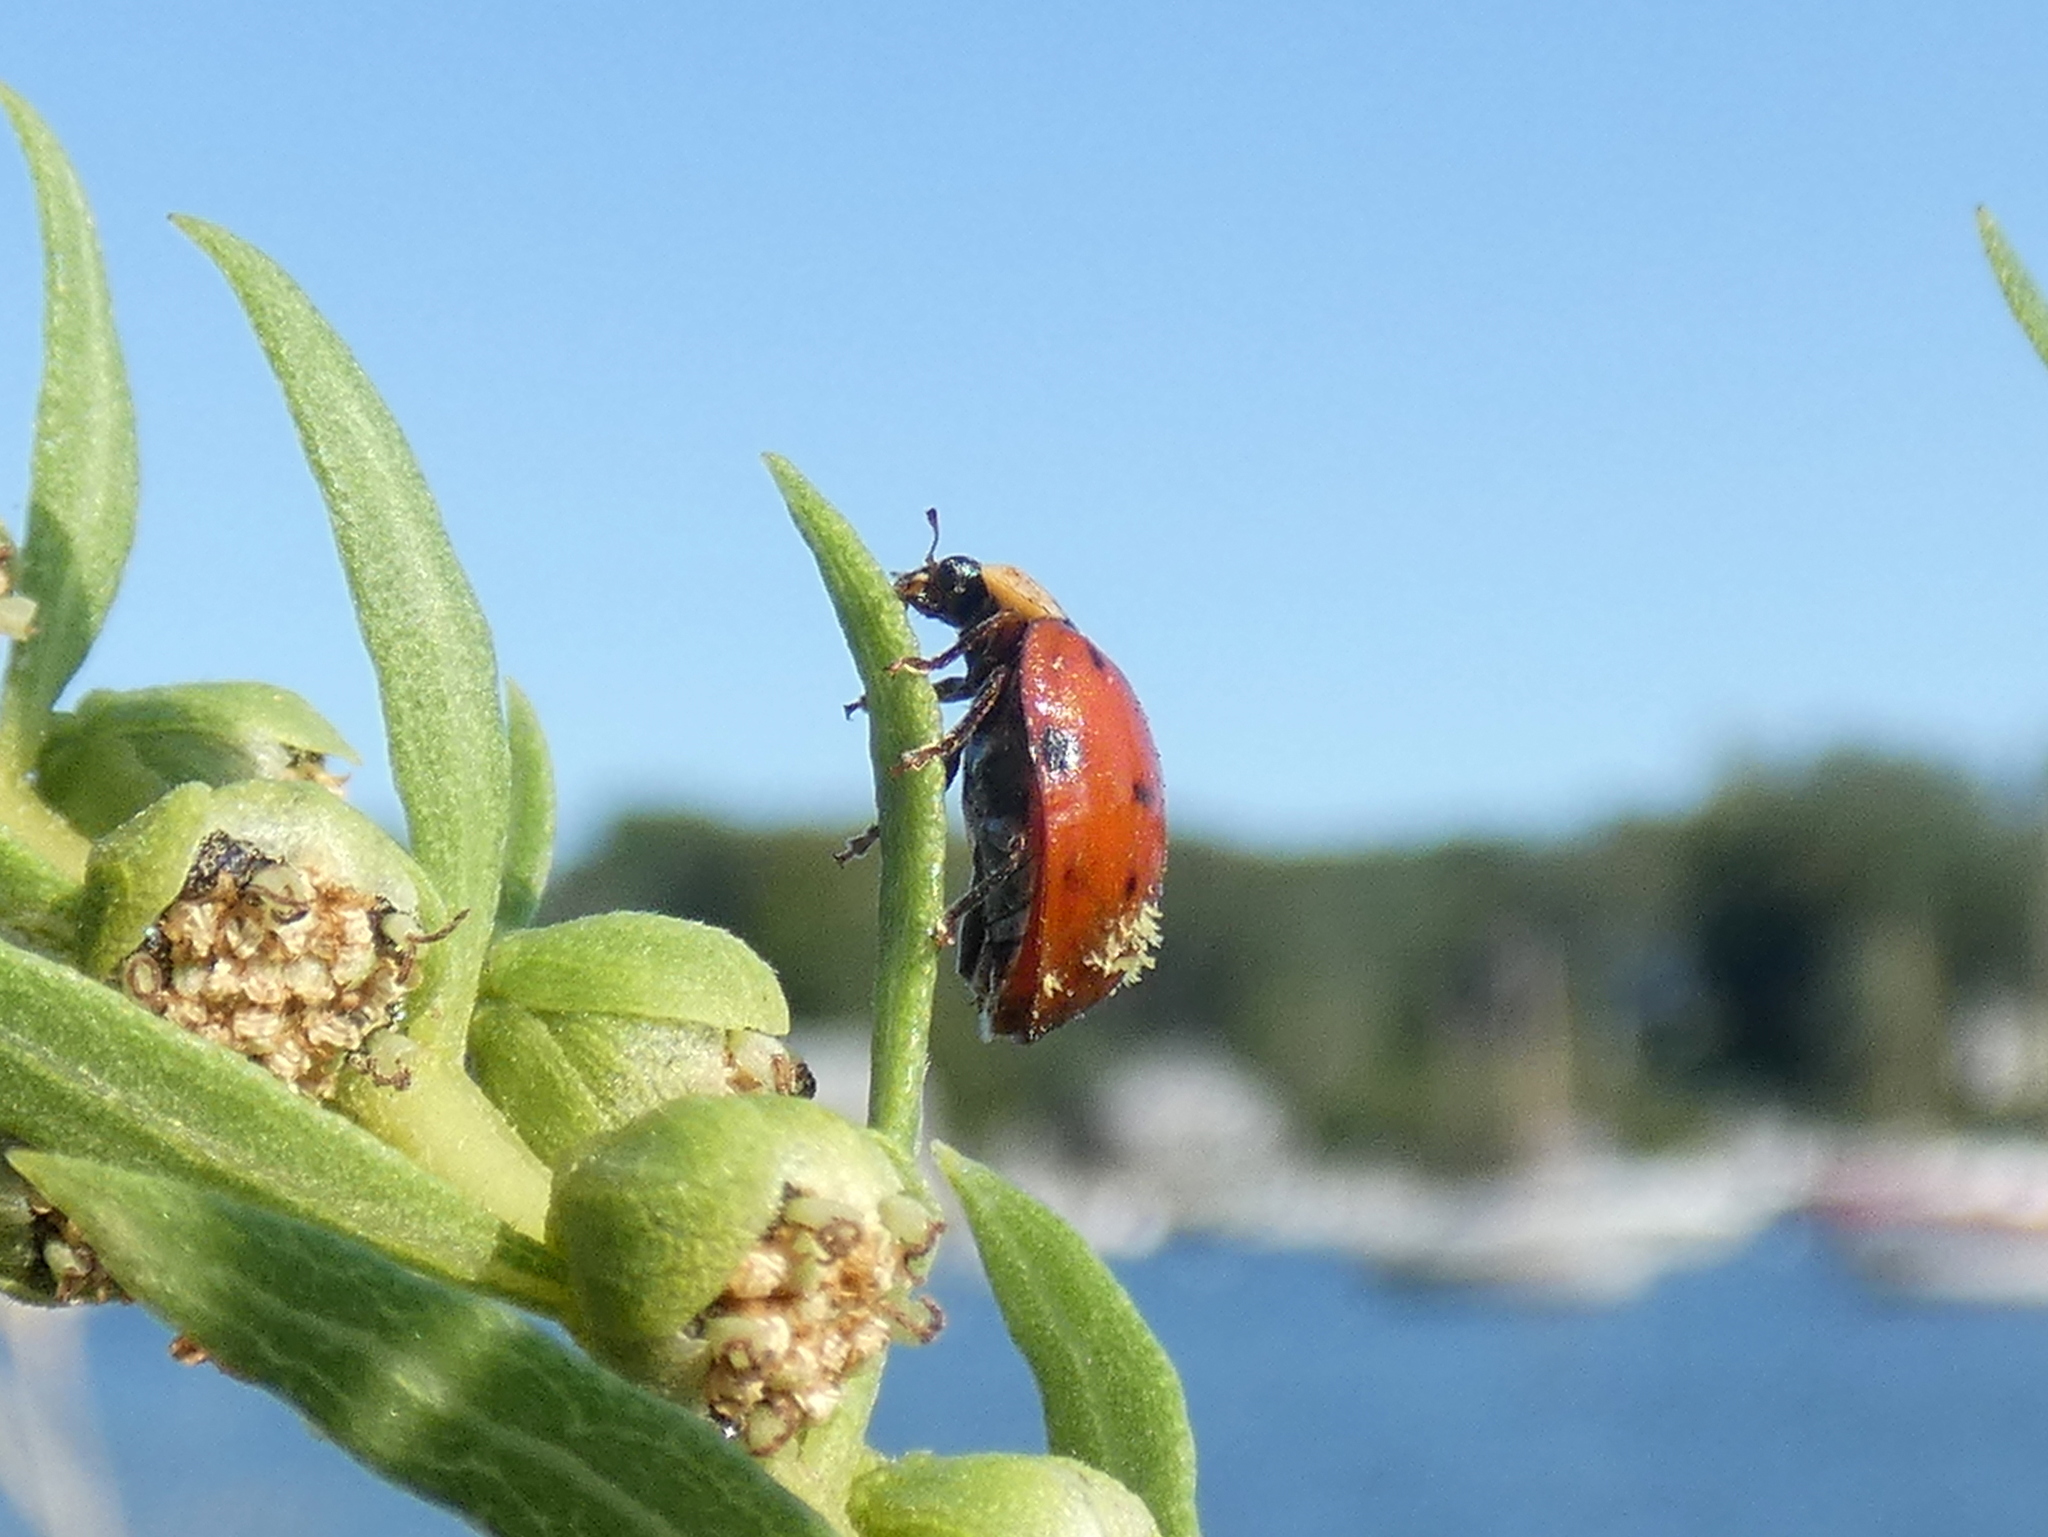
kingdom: Fungi
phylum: Ascomycota
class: Laboulbeniomycetes
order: Laboulbeniales
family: Laboulbeniaceae
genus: Hesperomyces
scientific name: Hesperomyces harmoniae
